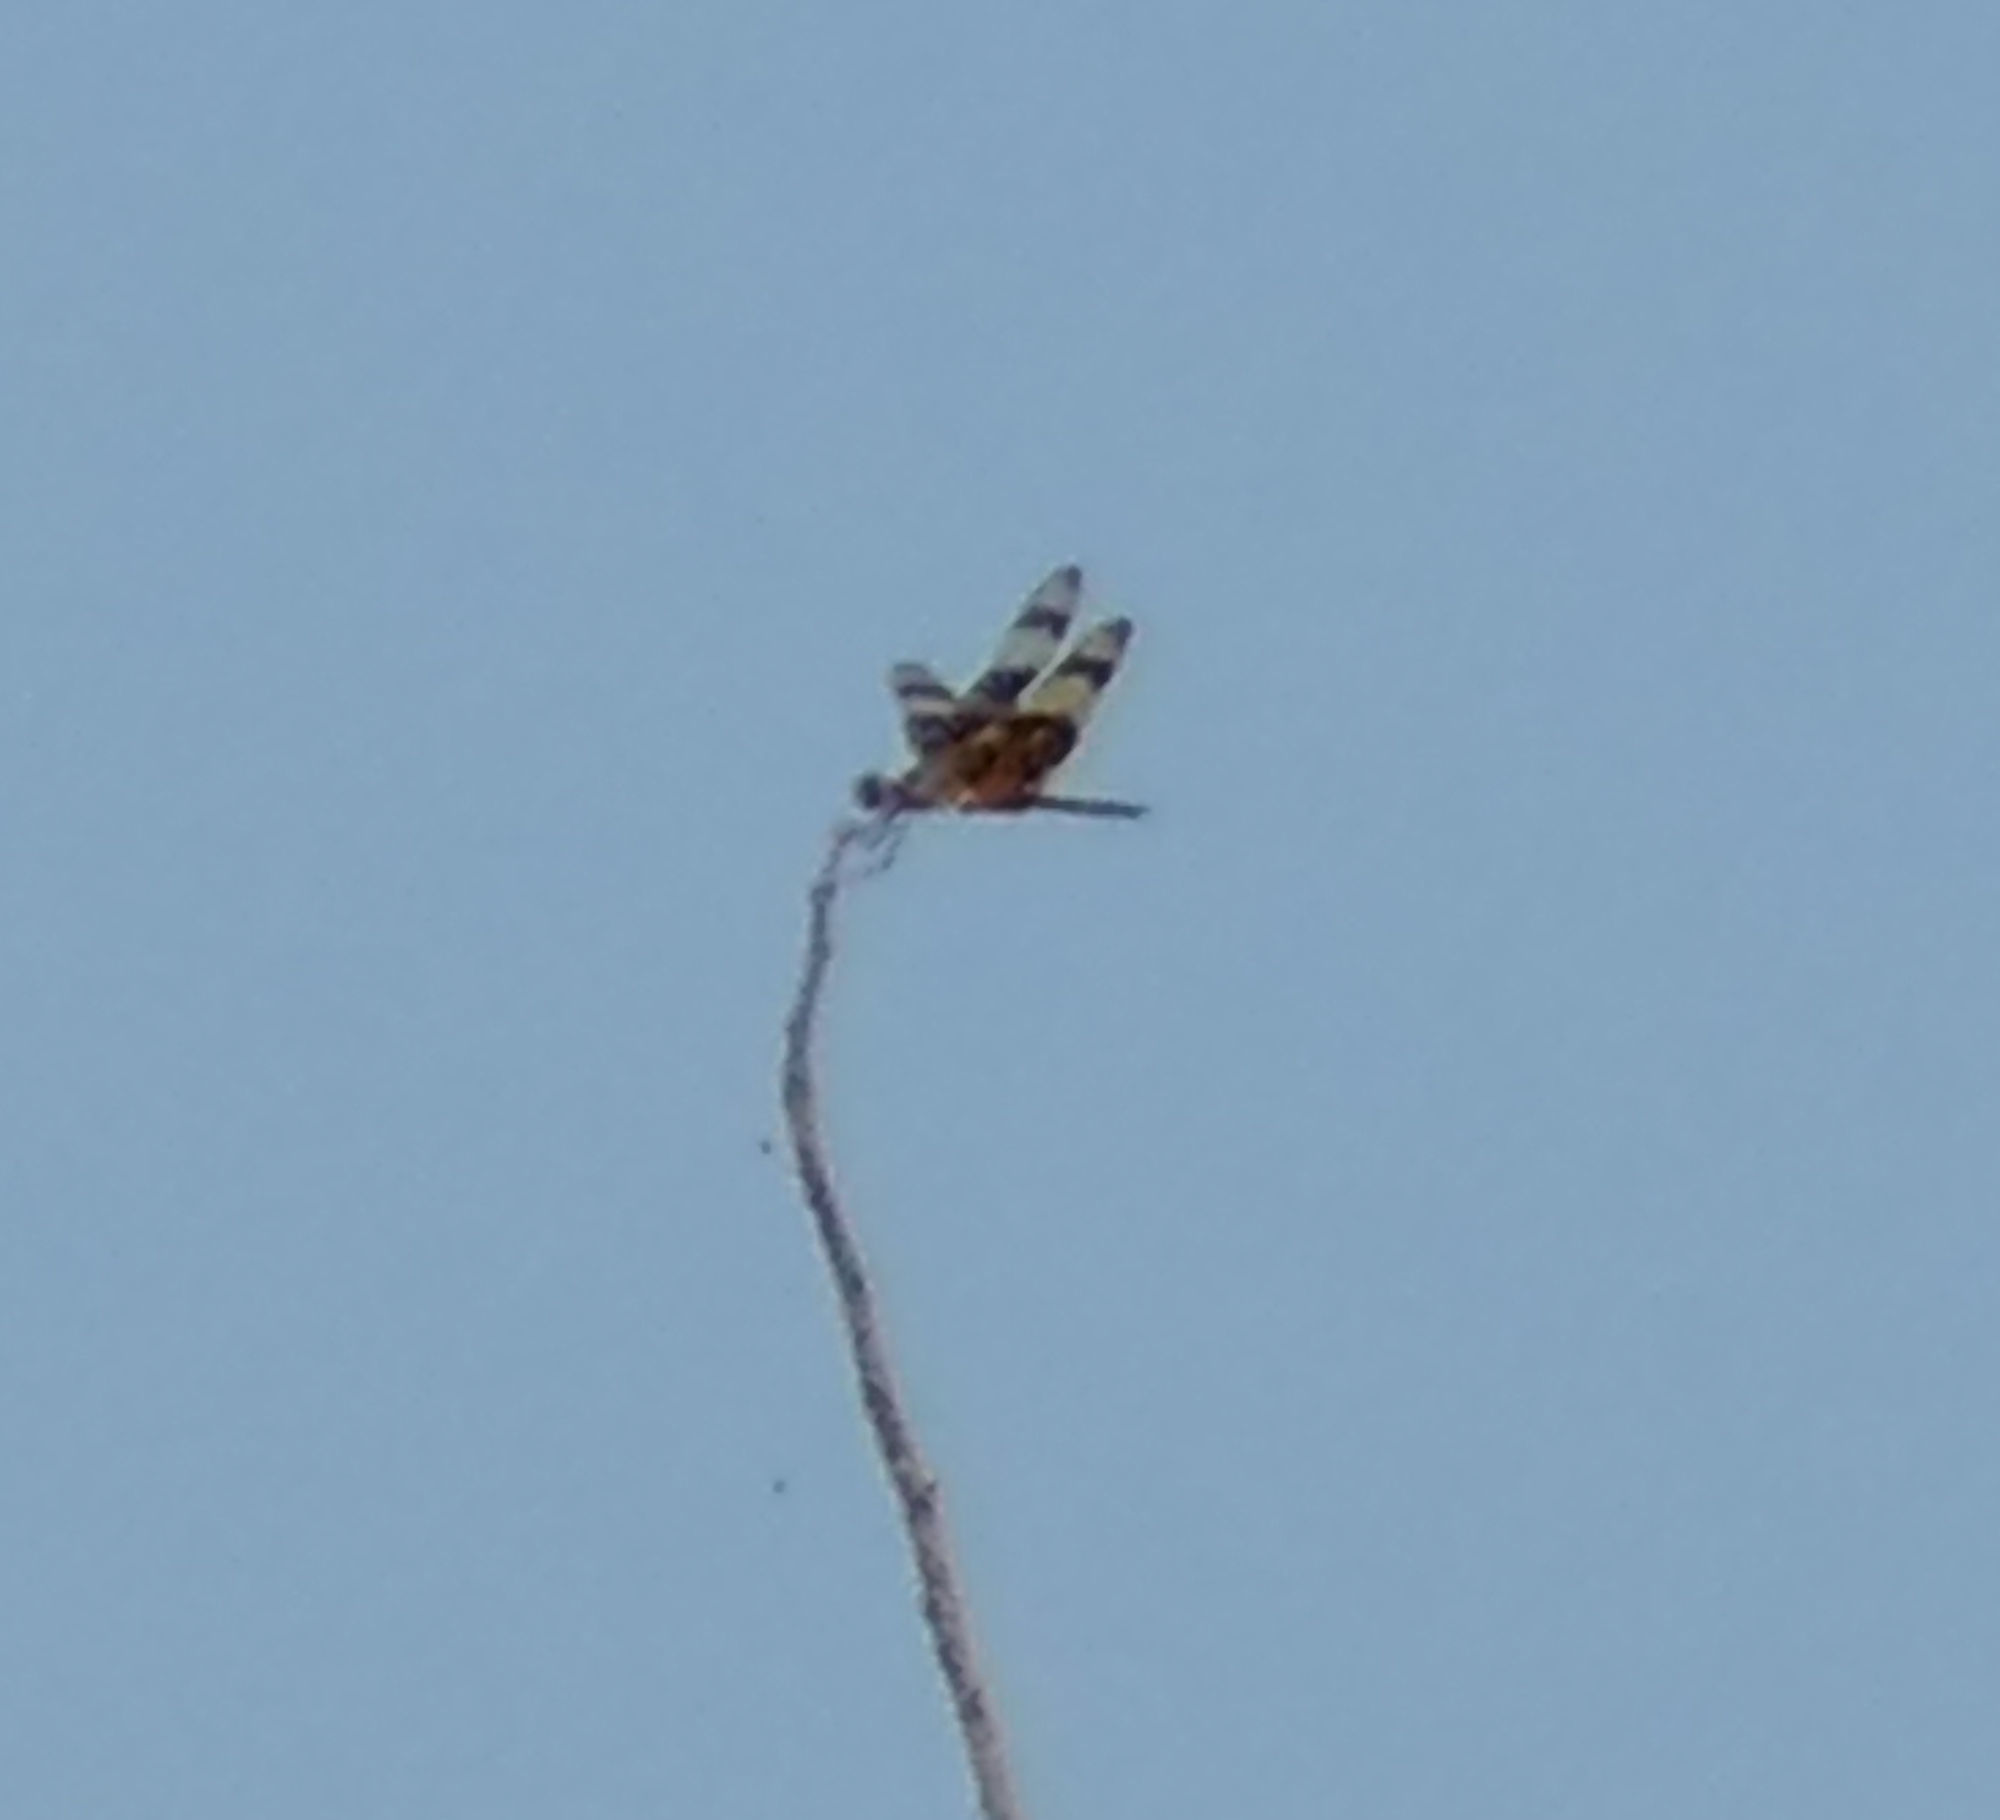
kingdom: Animalia
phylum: Arthropoda
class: Insecta
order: Odonata
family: Libellulidae
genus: Celithemis
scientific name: Celithemis eponina
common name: Halloween pennant
